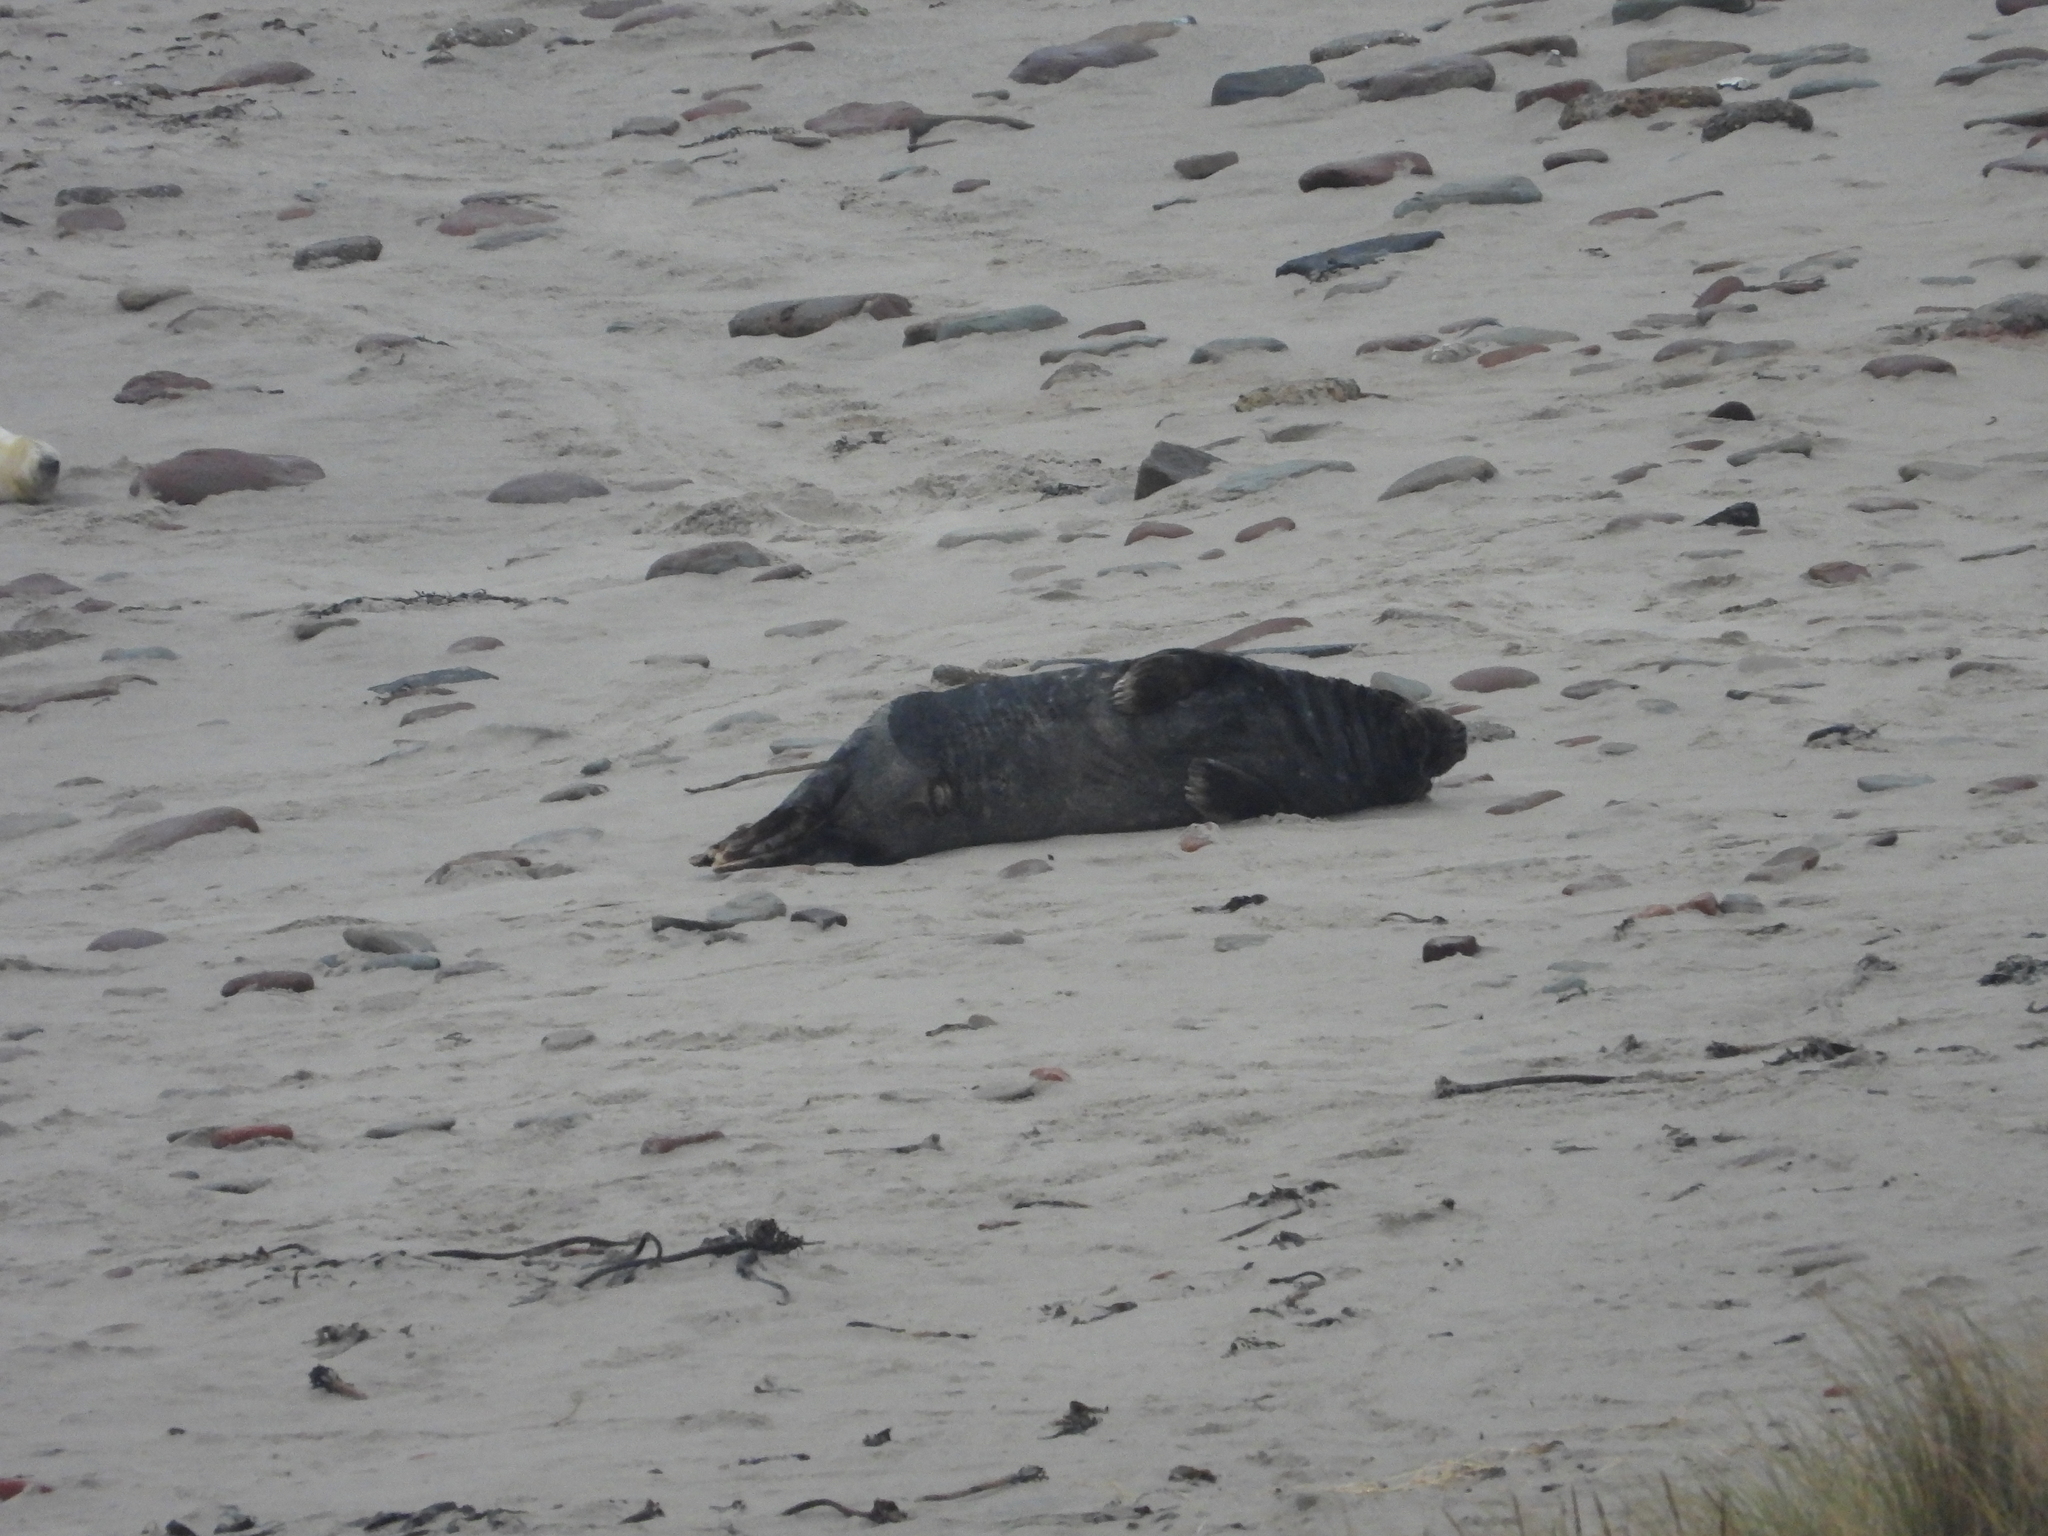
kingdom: Animalia
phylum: Chordata
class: Mammalia
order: Carnivora
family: Phocidae
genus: Halichoerus
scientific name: Halichoerus grypus
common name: Grey seal
